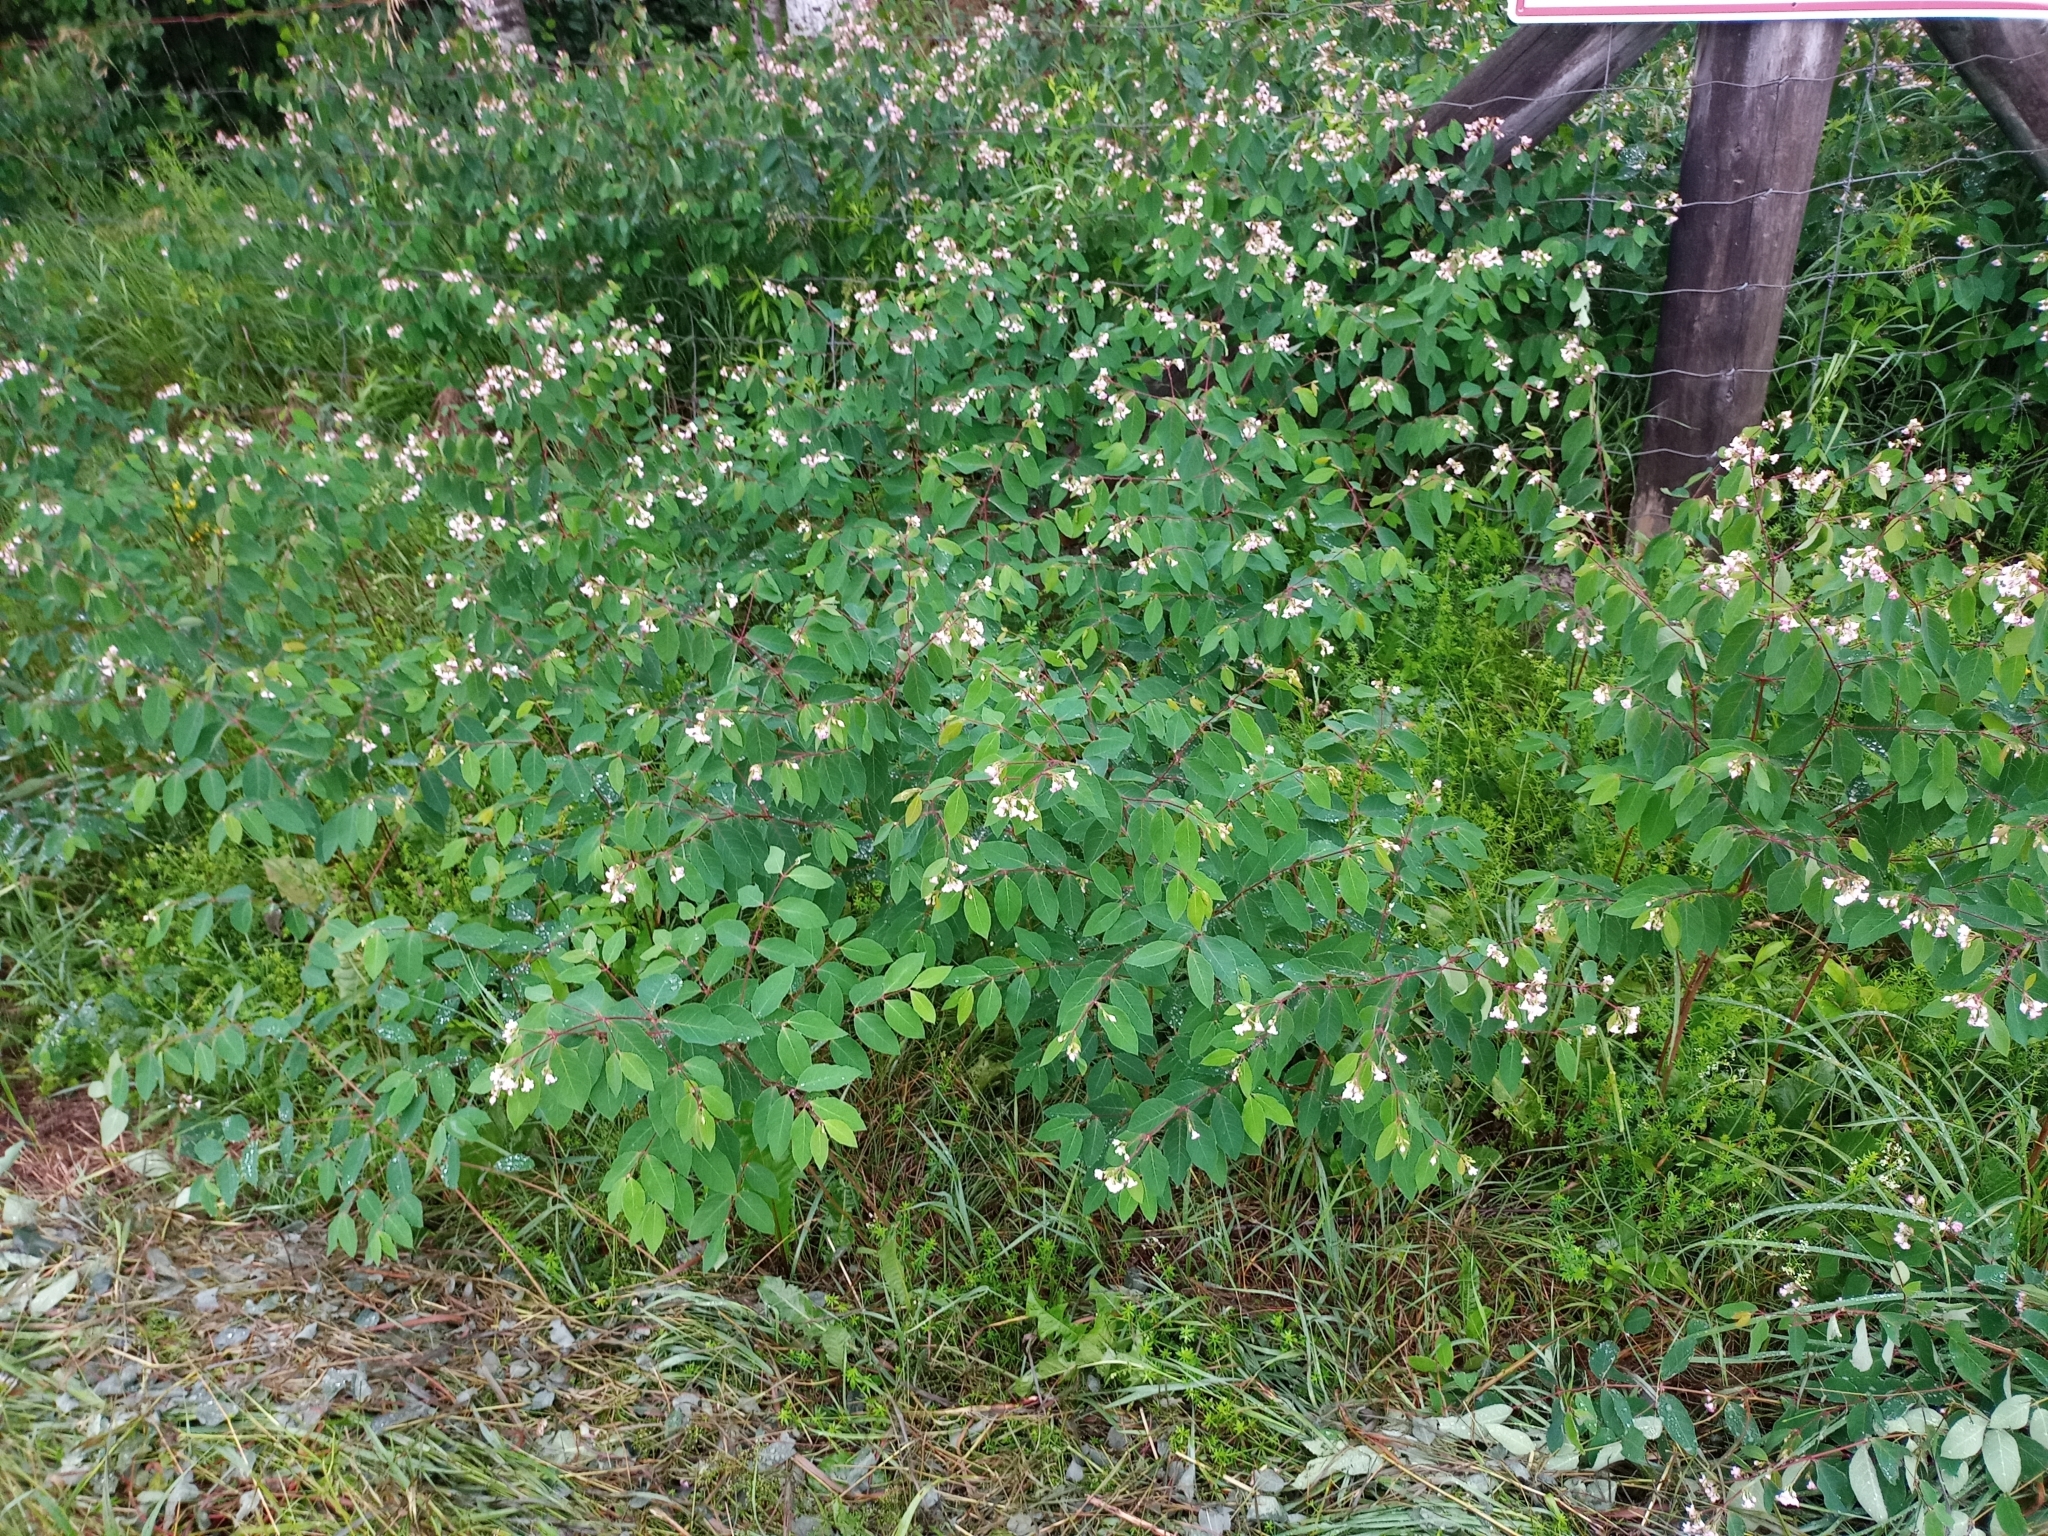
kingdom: Plantae
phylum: Tracheophyta
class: Magnoliopsida
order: Gentianales
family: Apocynaceae
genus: Apocynum
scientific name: Apocynum androsaemifolium
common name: Spreading dogbane
